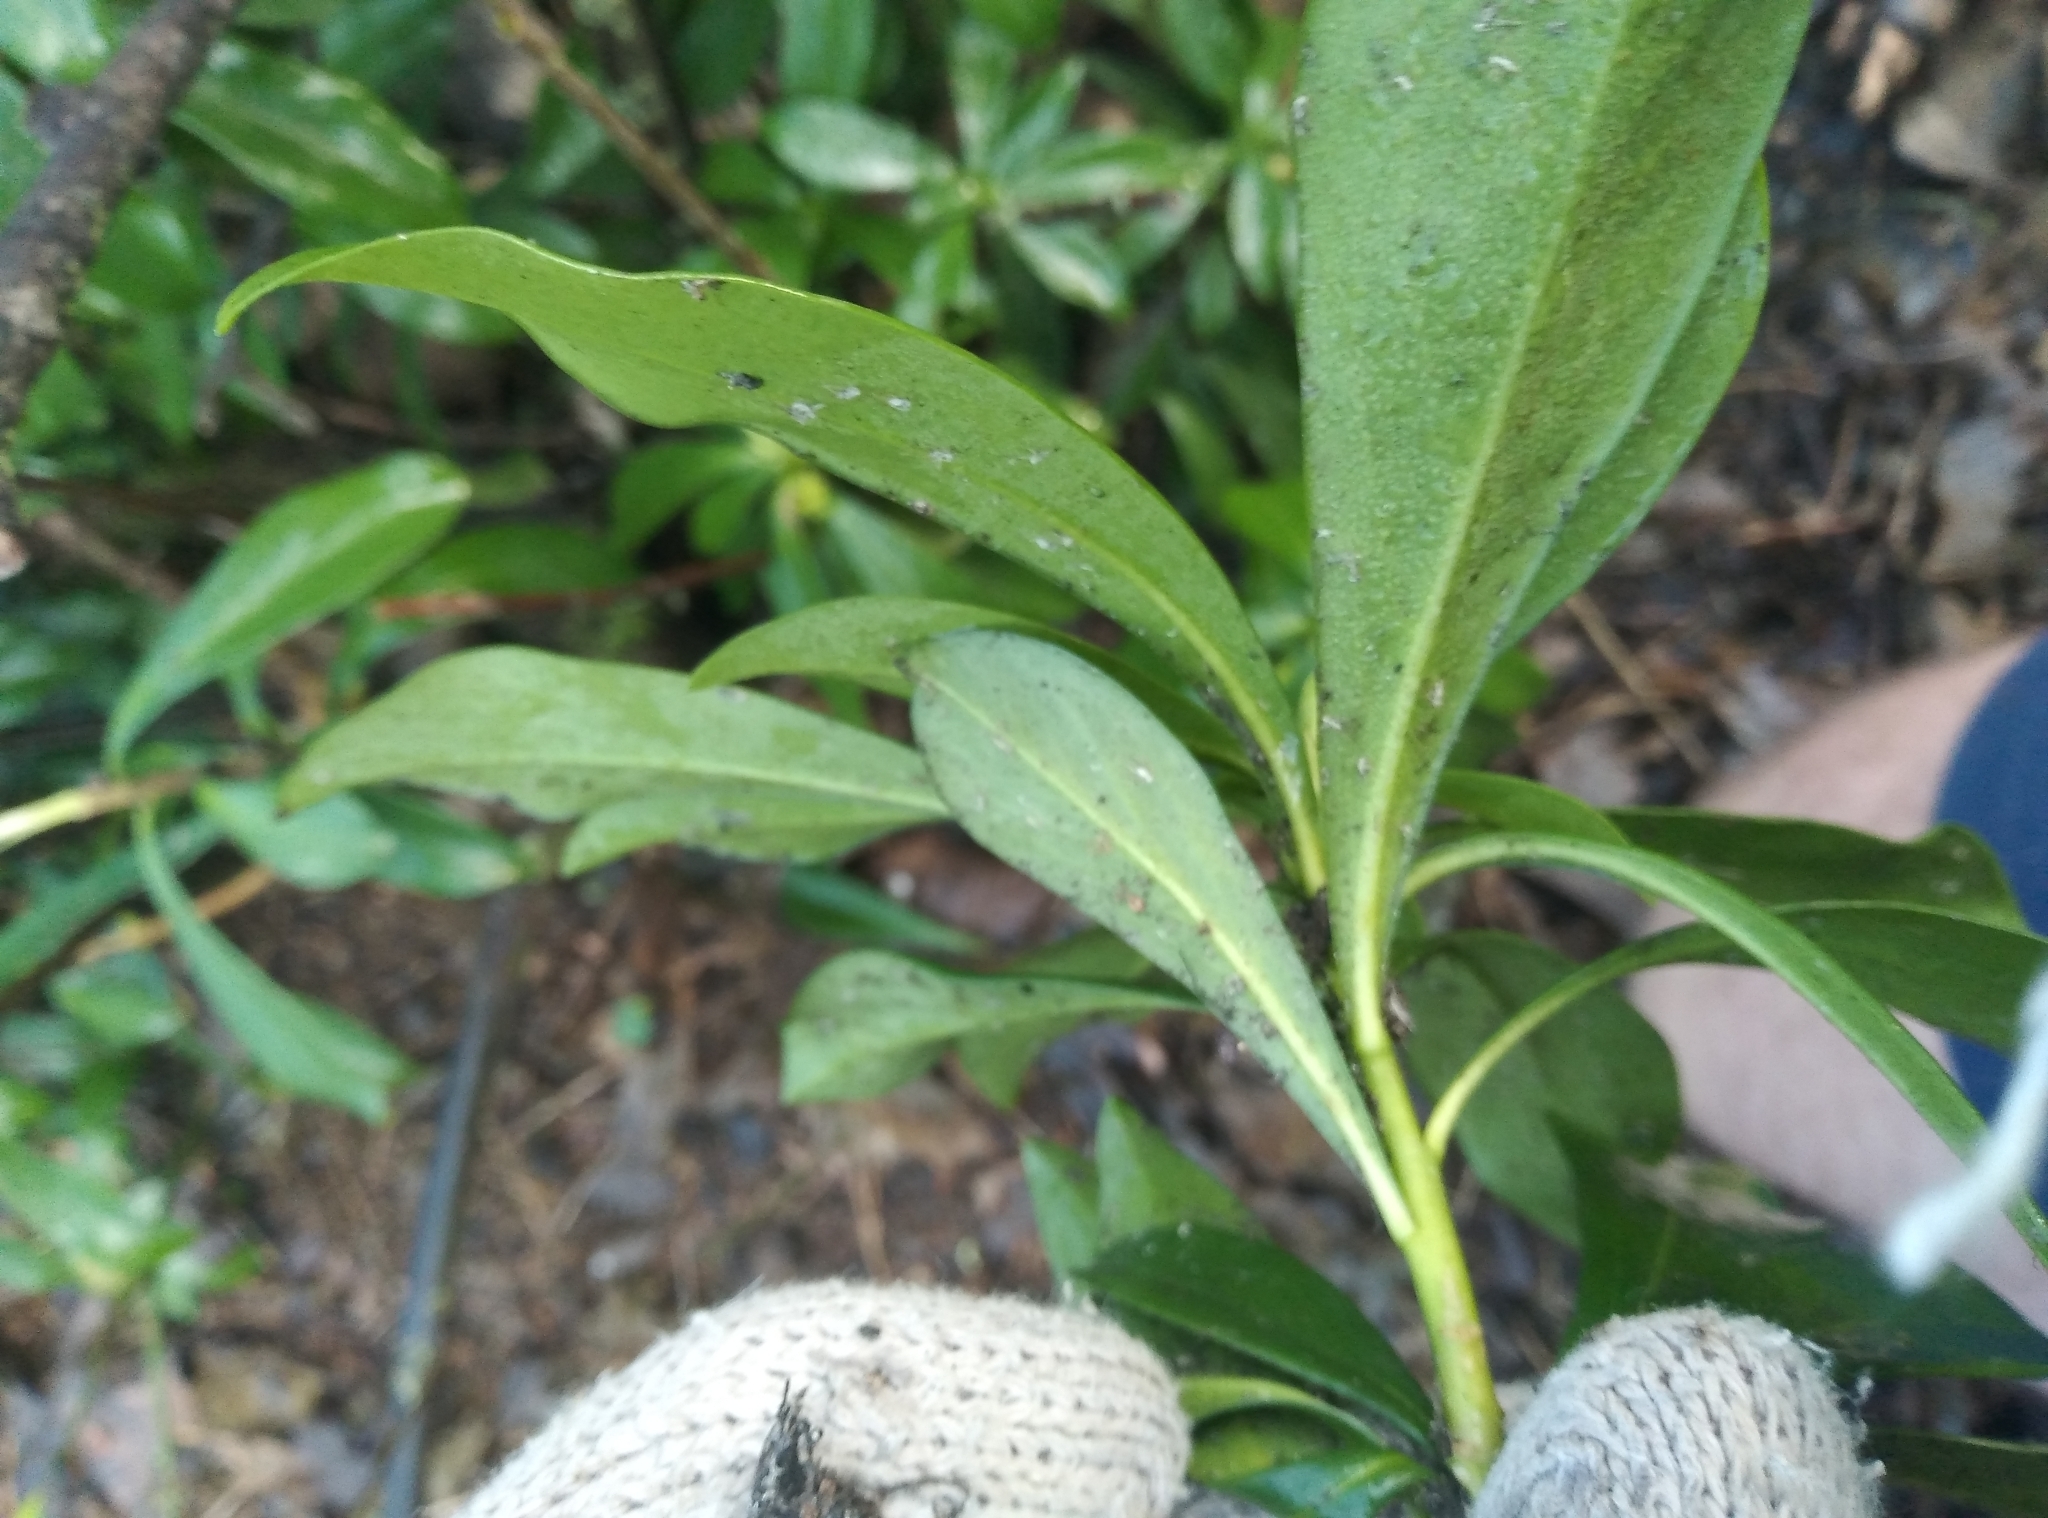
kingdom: Plantae
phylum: Tracheophyta
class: Magnoliopsida
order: Malvales
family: Thymelaeaceae
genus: Daphne
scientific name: Daphne laureola
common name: Spurge-laurel
